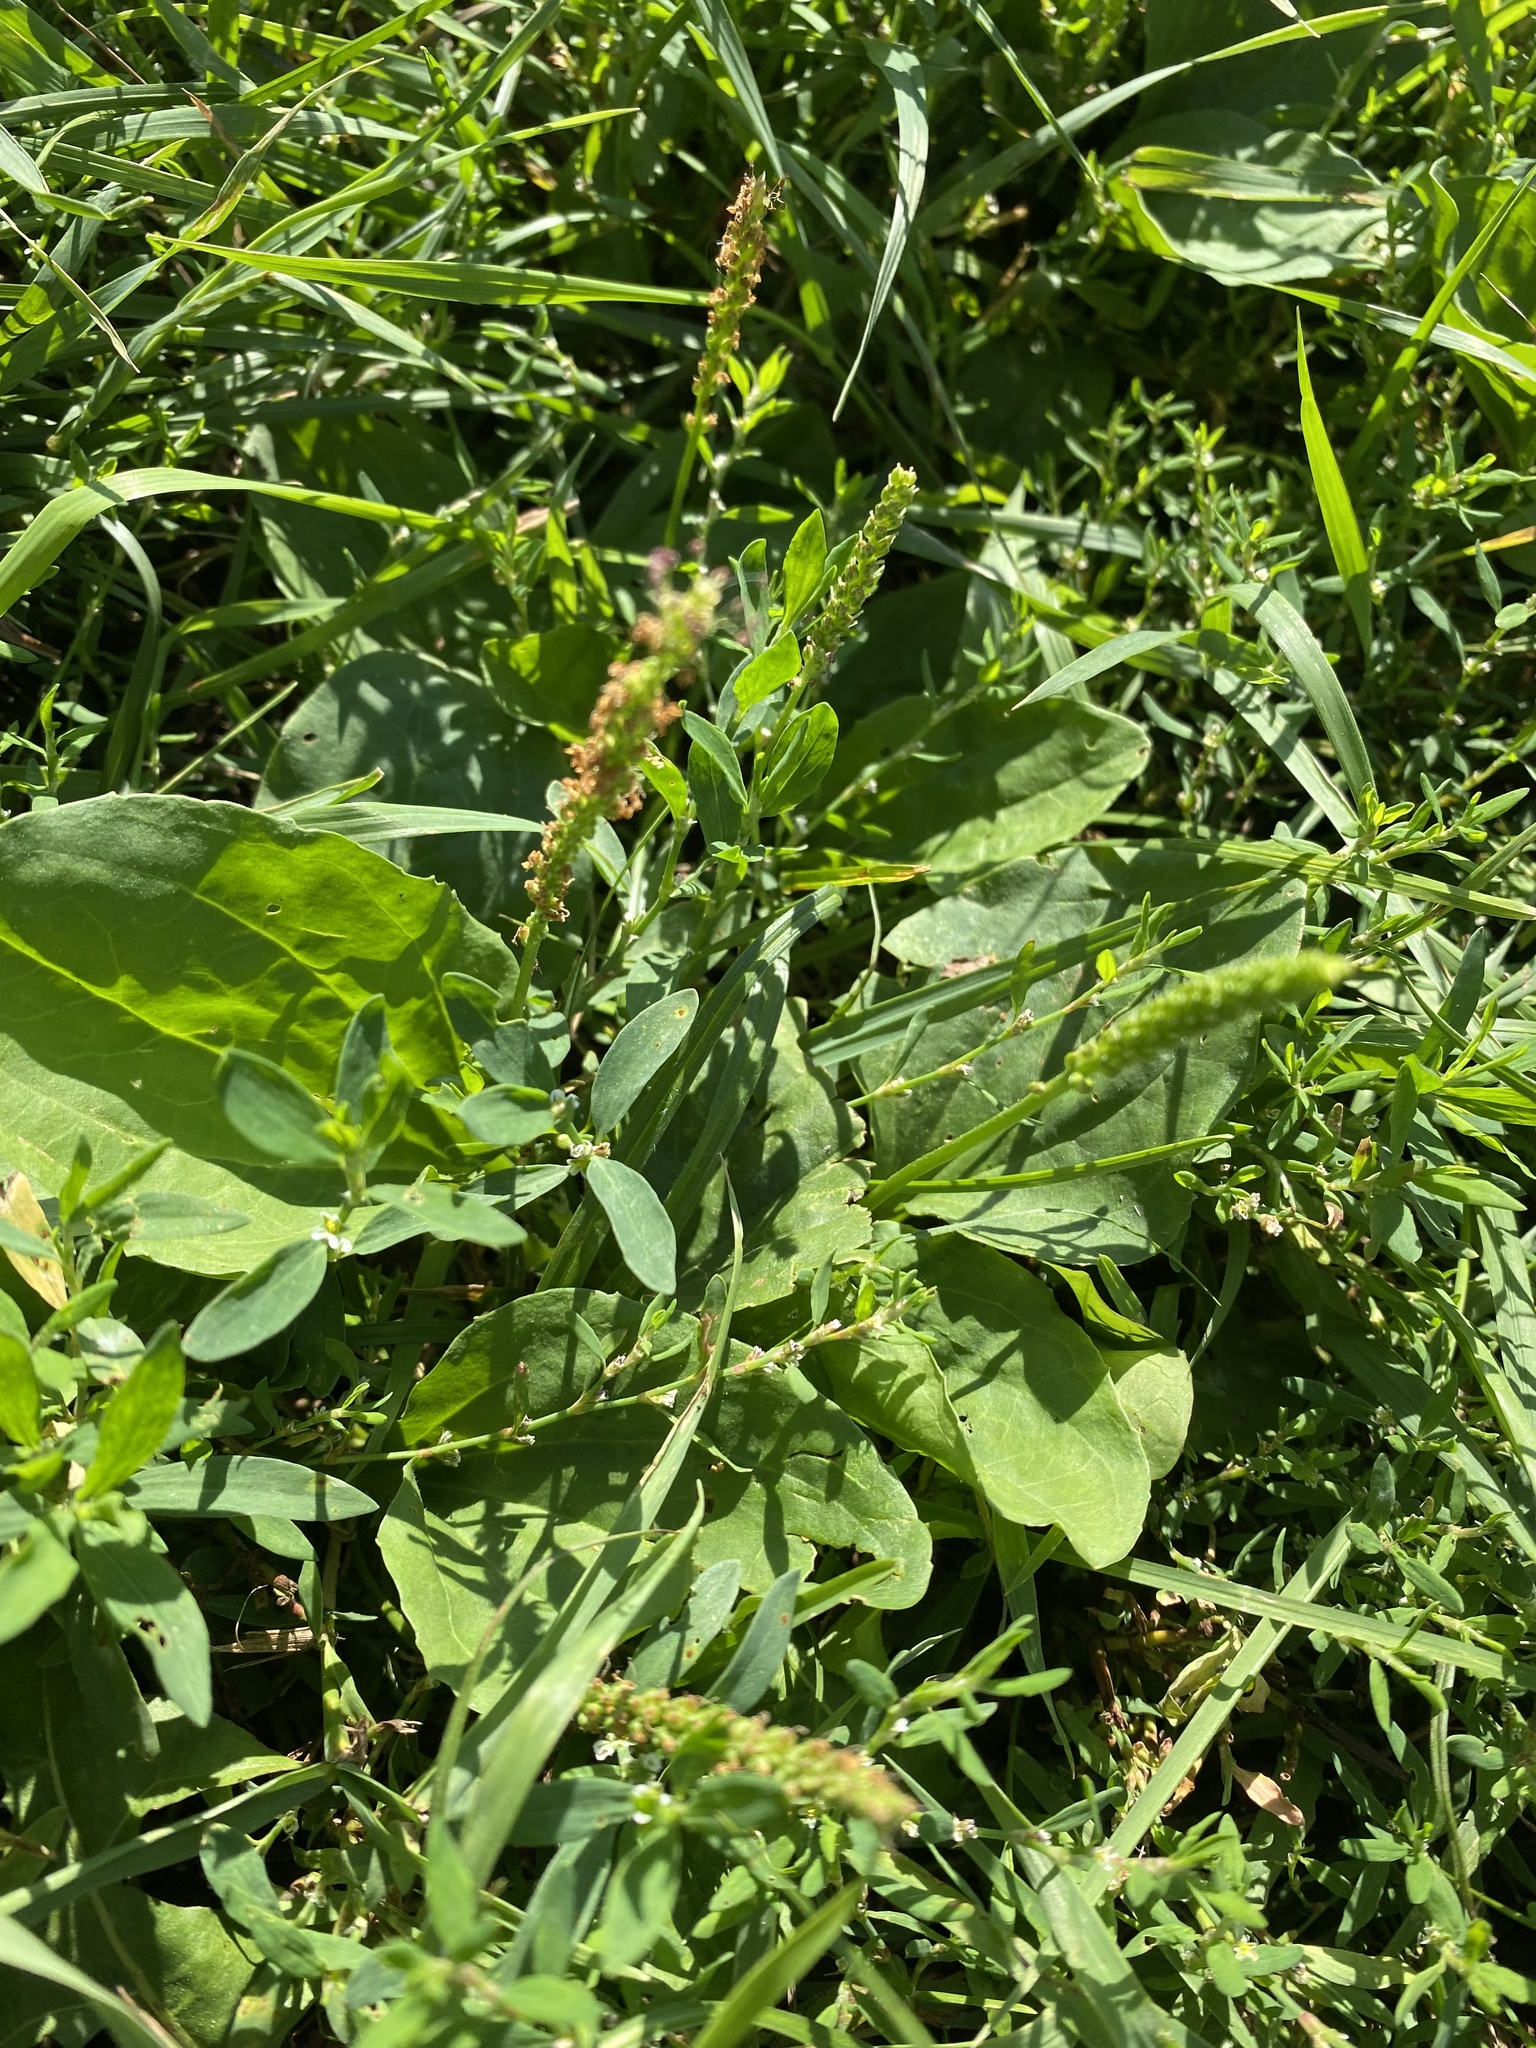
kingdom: Plantae
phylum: Tracheophyta
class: Magnoliopsida
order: Lamiales
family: Plantaginaceae
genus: Plantago
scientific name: Plantago major
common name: Common plantain
